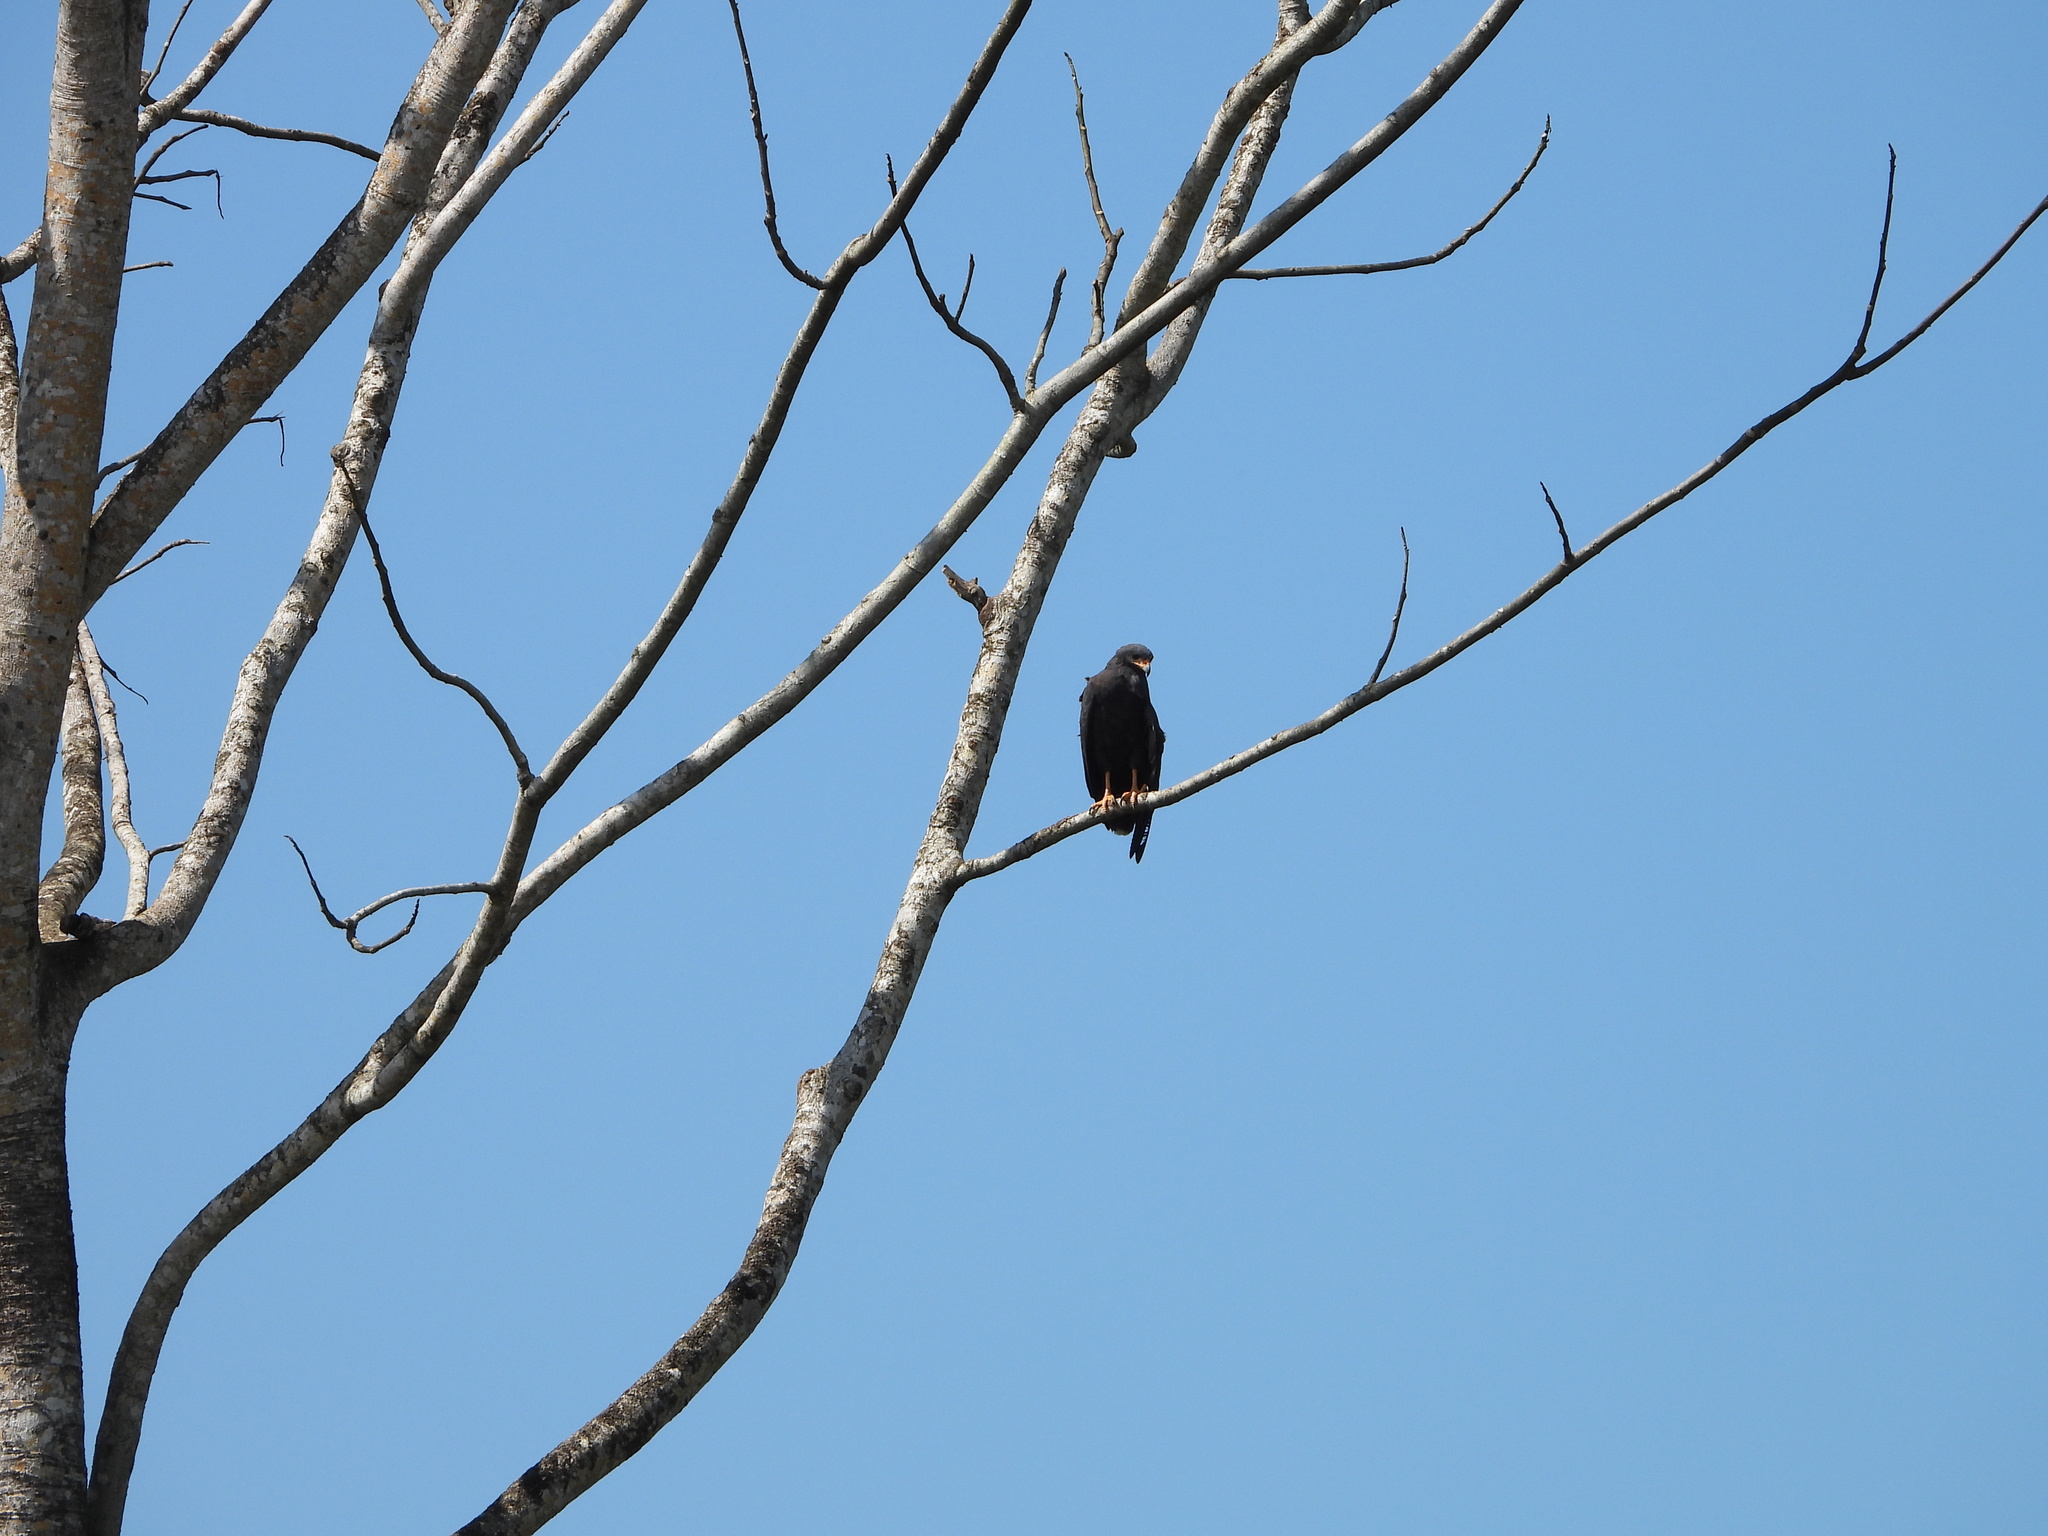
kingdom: Animalia
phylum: Chordata
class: Aves
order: Accipitriformes
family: Accipitridae
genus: Buteogallus
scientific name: Buteogallus anthracinus
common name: Common black hawk
